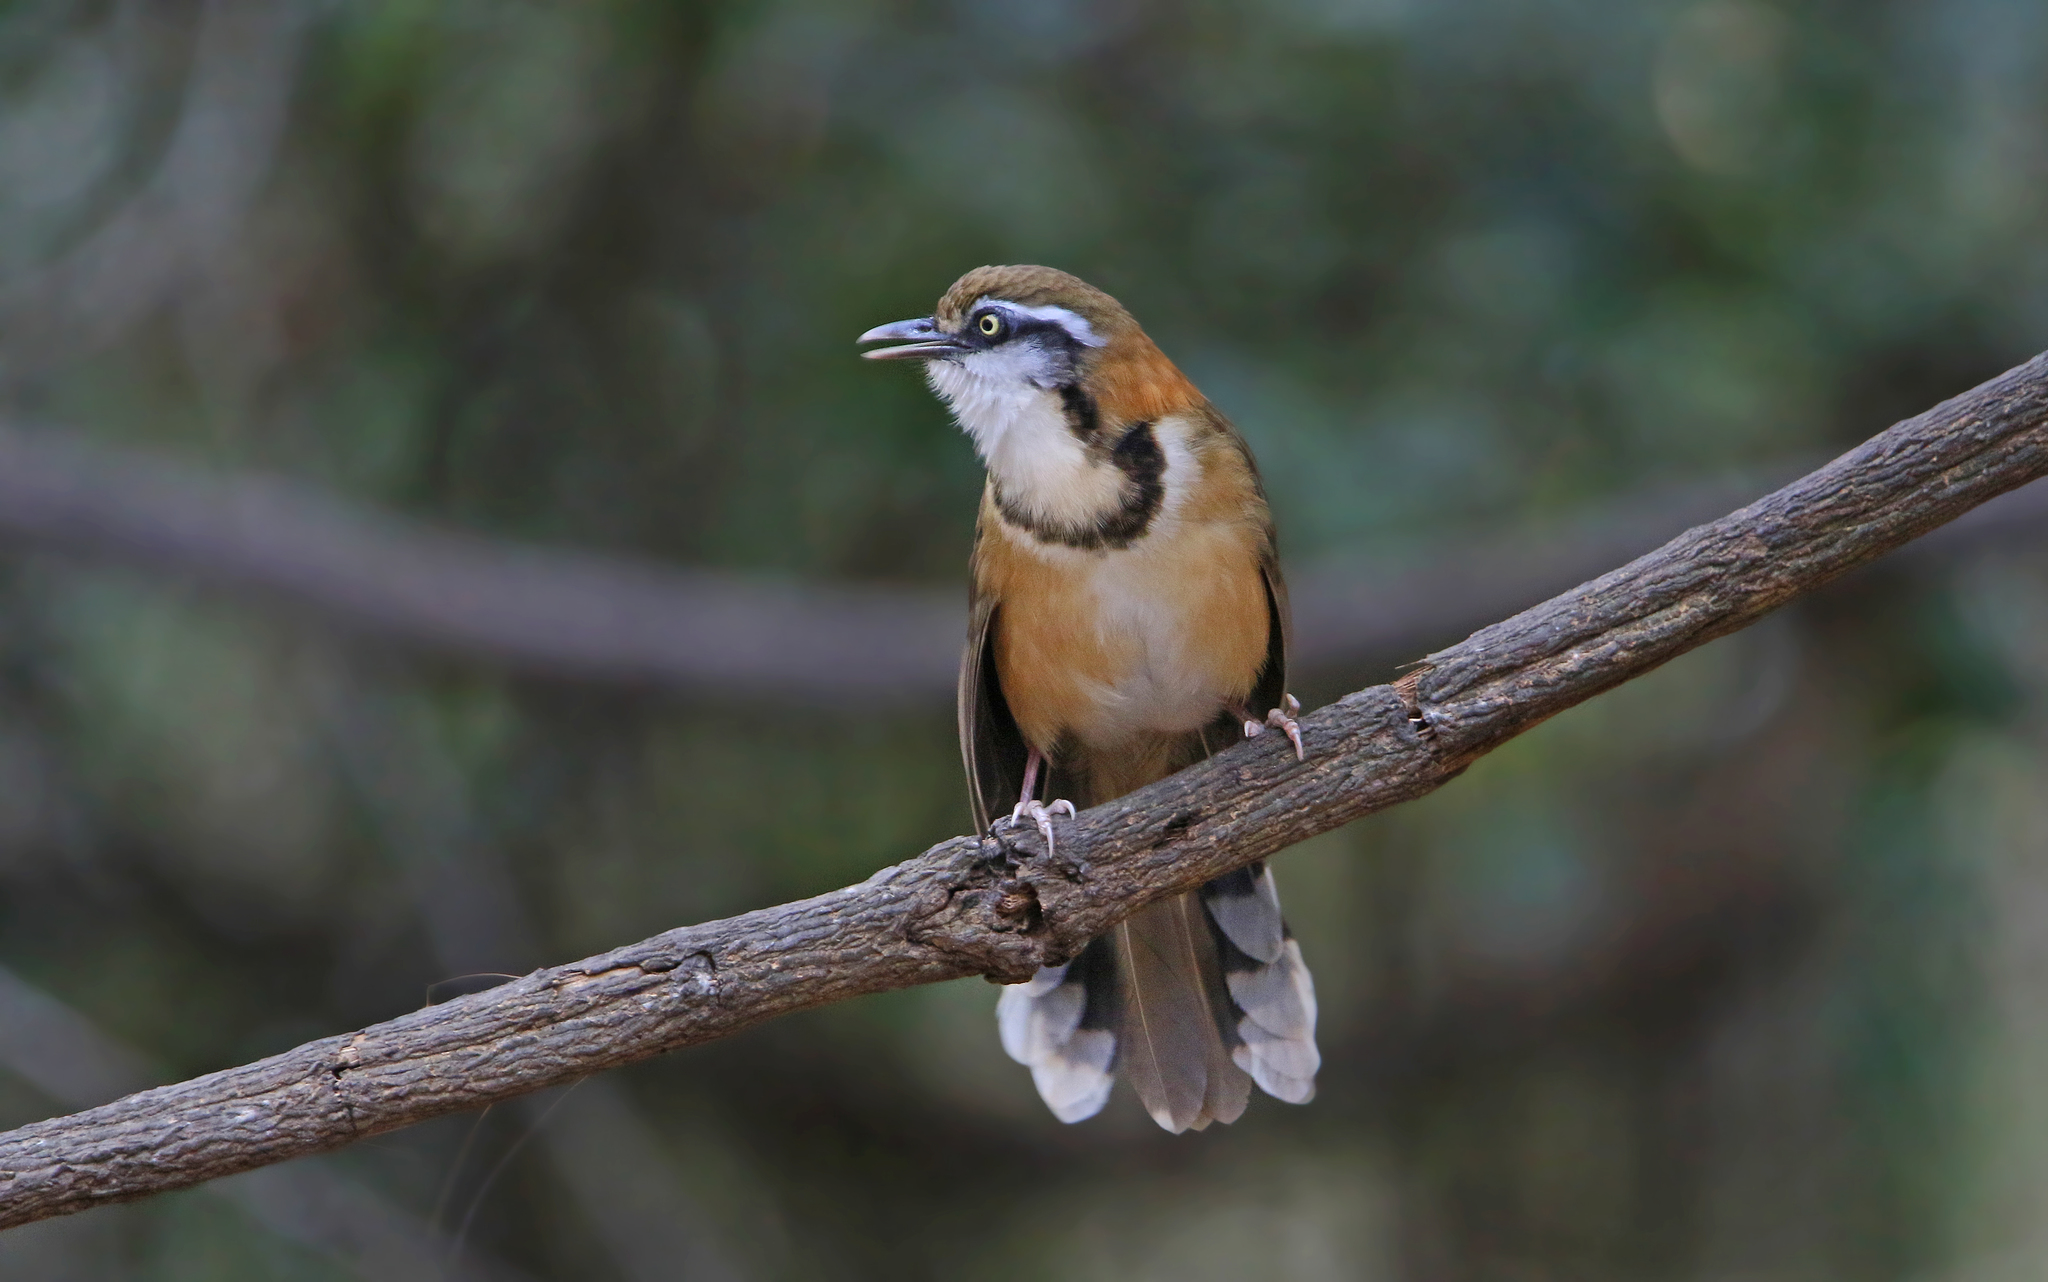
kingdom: Animalia
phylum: Chordata
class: Aves
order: Passeriformes
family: Leiothrichidae
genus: Garrulax
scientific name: Garrulax monileger
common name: Lesser necklaced laughingthrush
